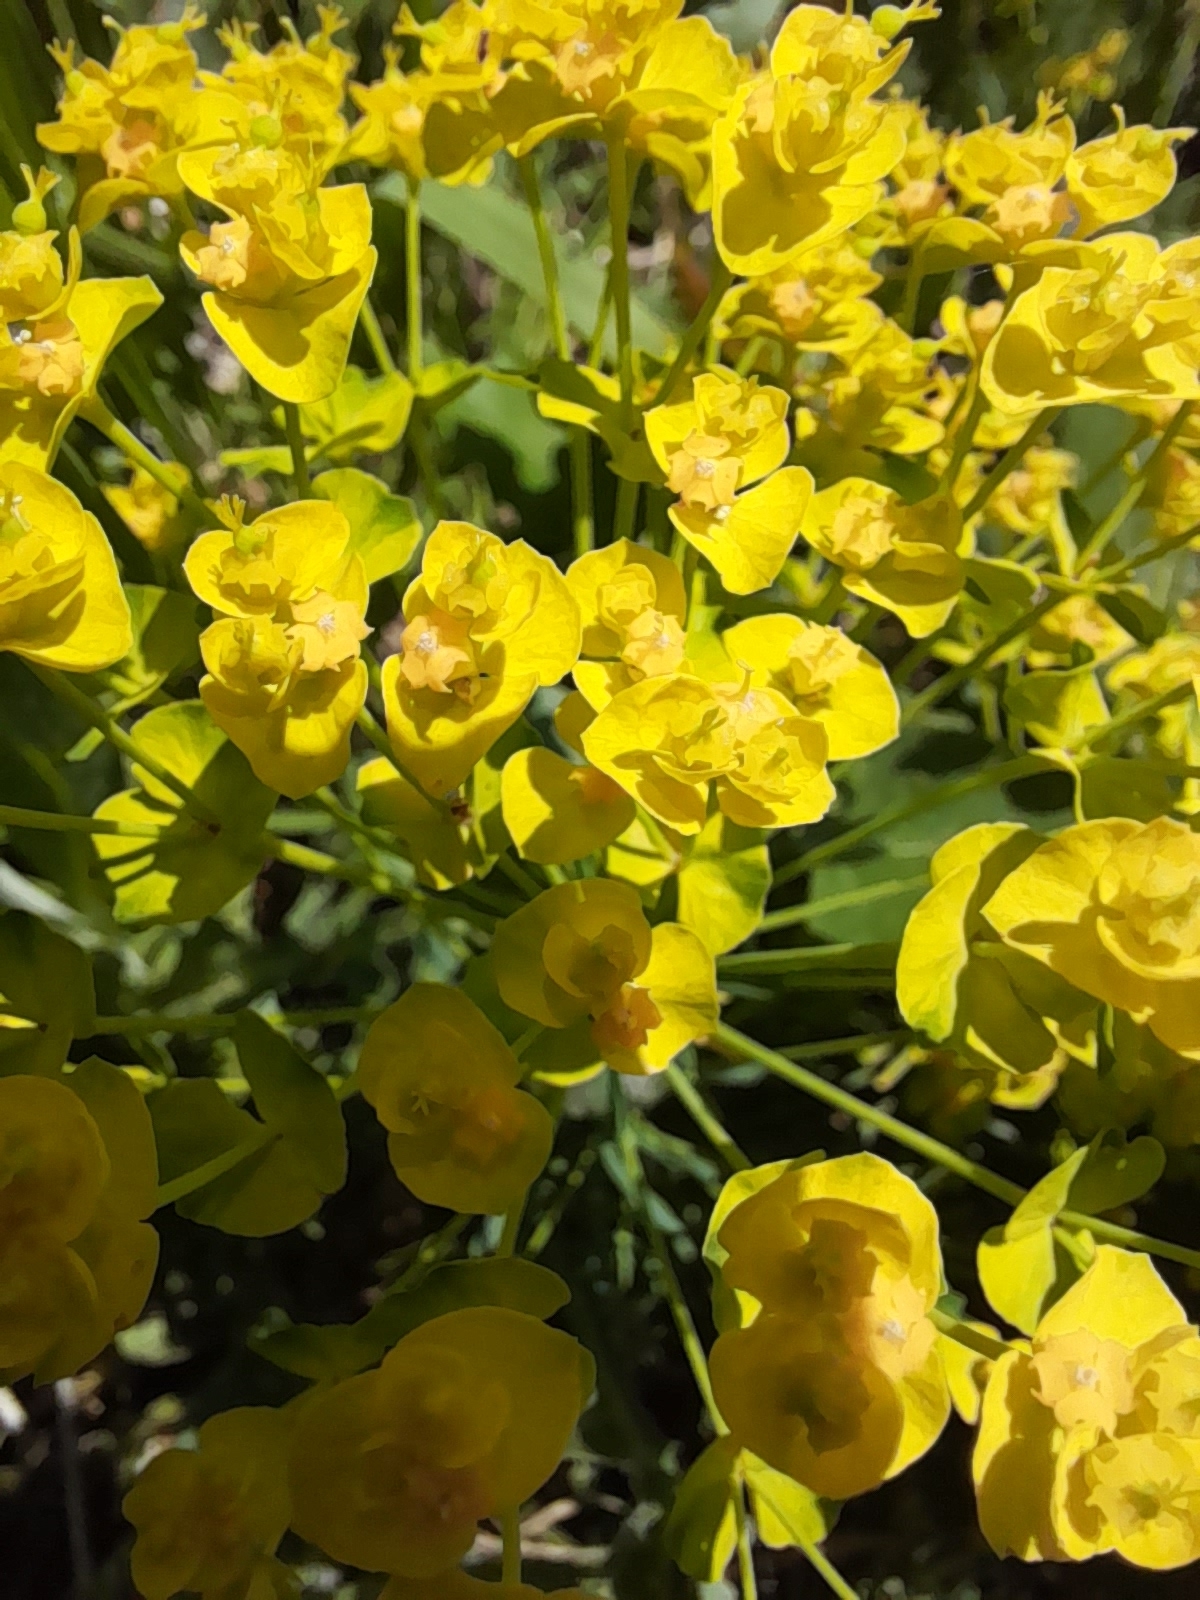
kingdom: Plantae
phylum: Tracheophyta
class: Magnoliopsida
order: Malpighiales
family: Euphorbiaceae
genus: Euphorbia
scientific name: Euphorbia cyparissias
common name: Cypress spurge
